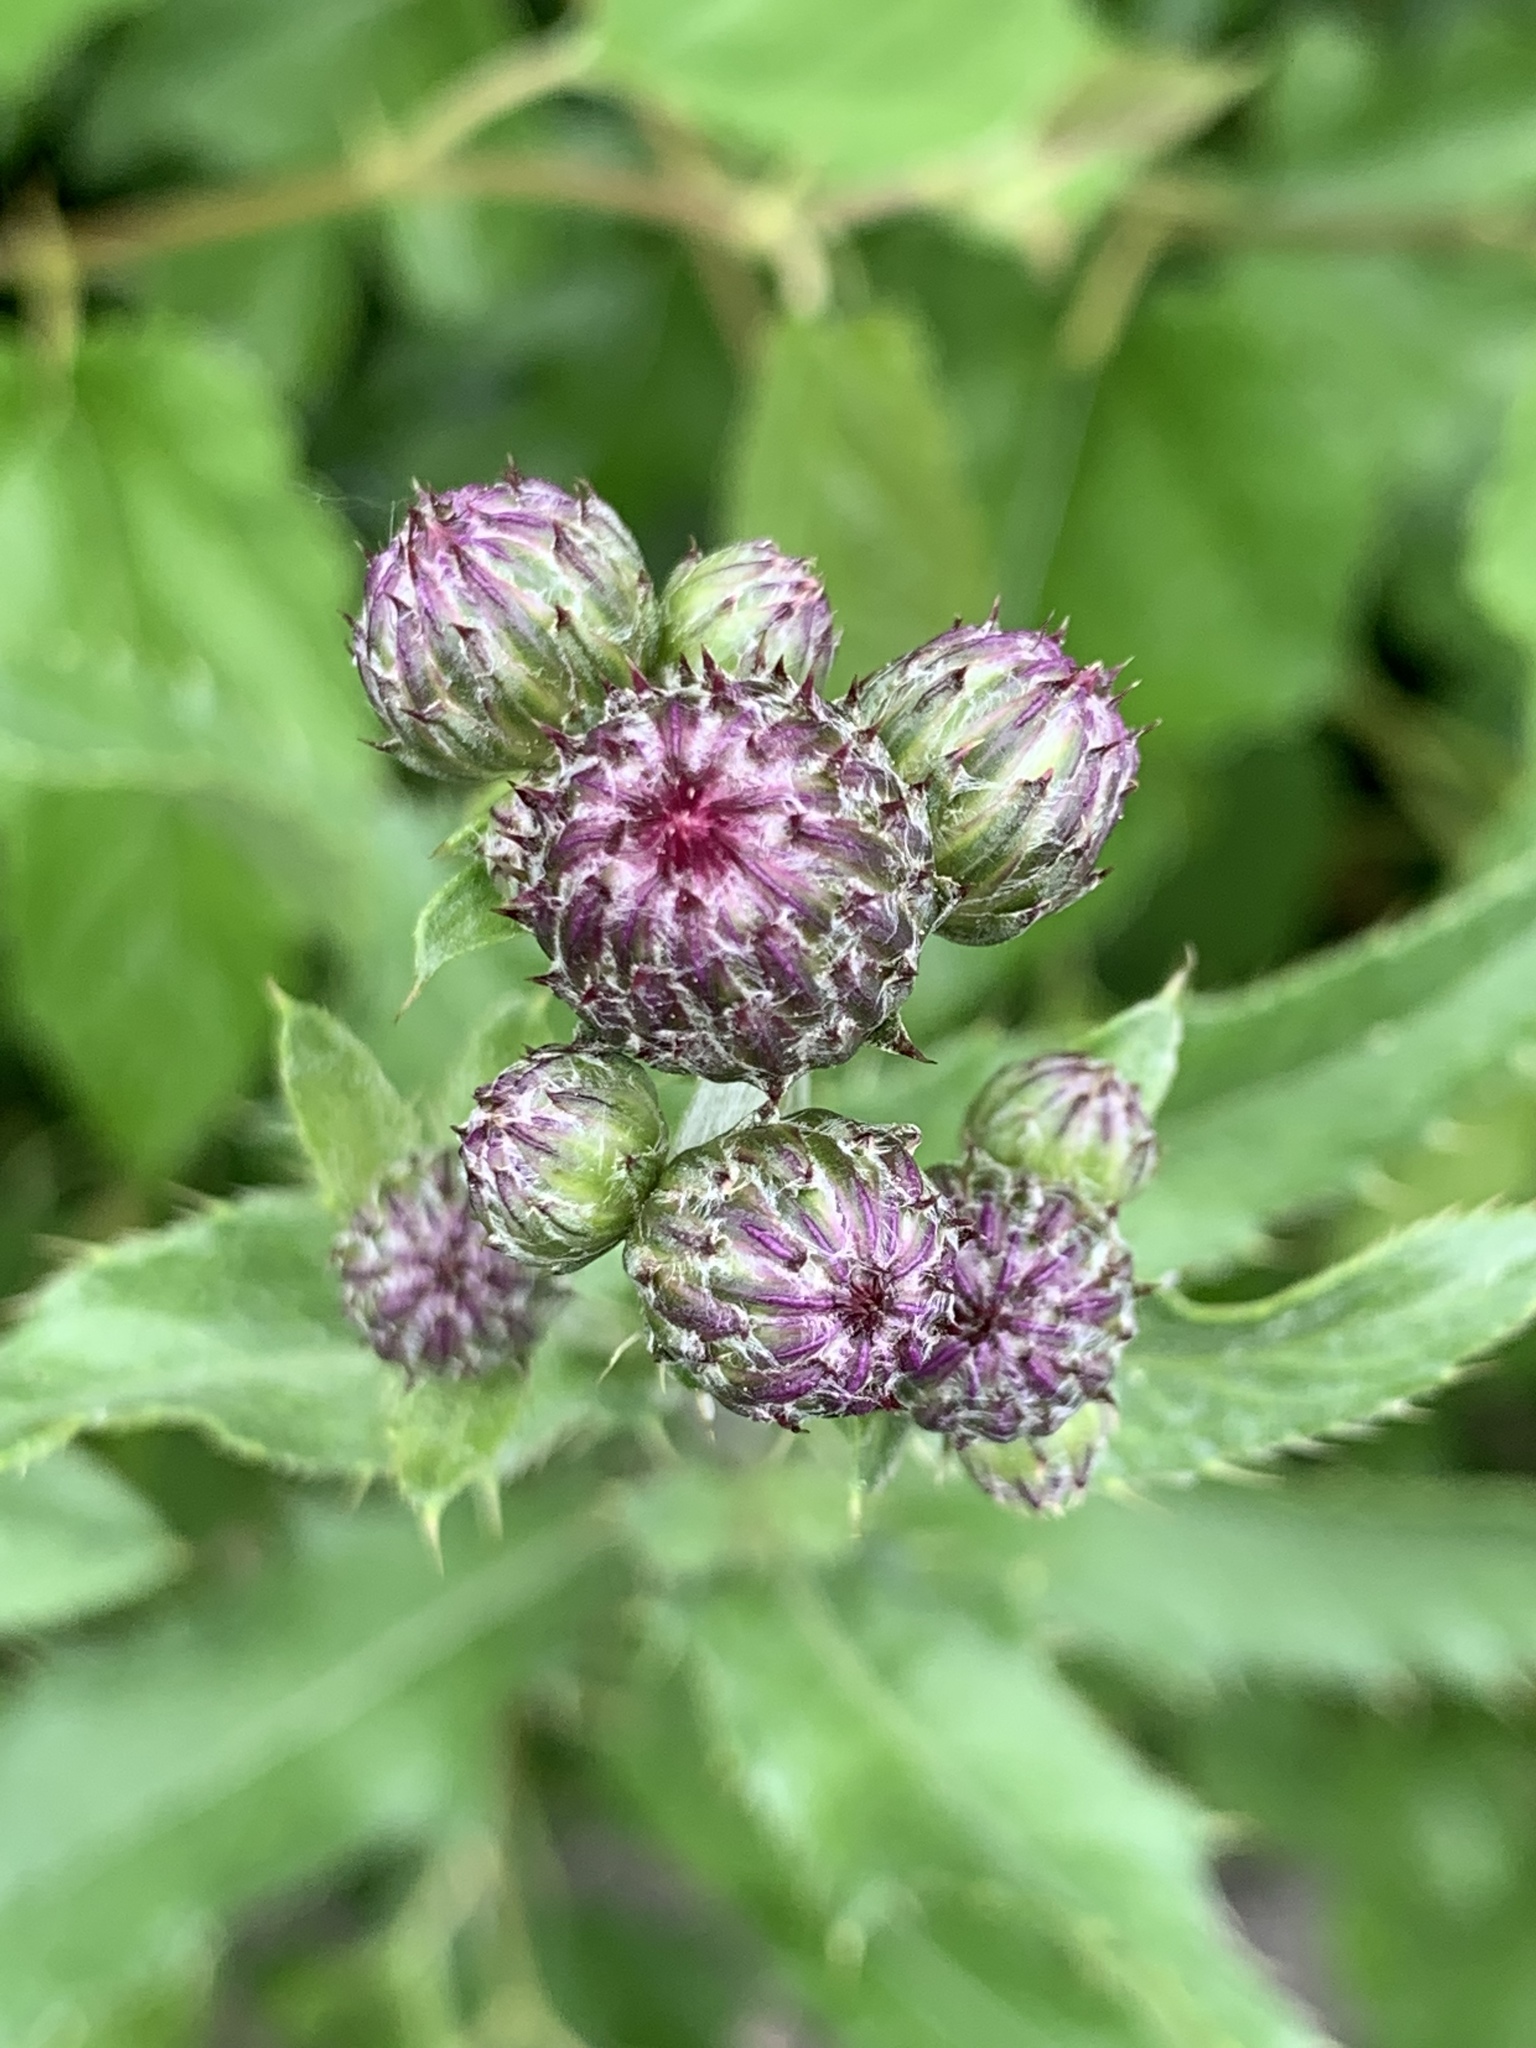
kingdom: Plantae
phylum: Tracheophyta
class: Magnoliopsida
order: Asterales
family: Asteraceae
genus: Cirsium
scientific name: Cirsium arvense
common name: Creeping thistle
